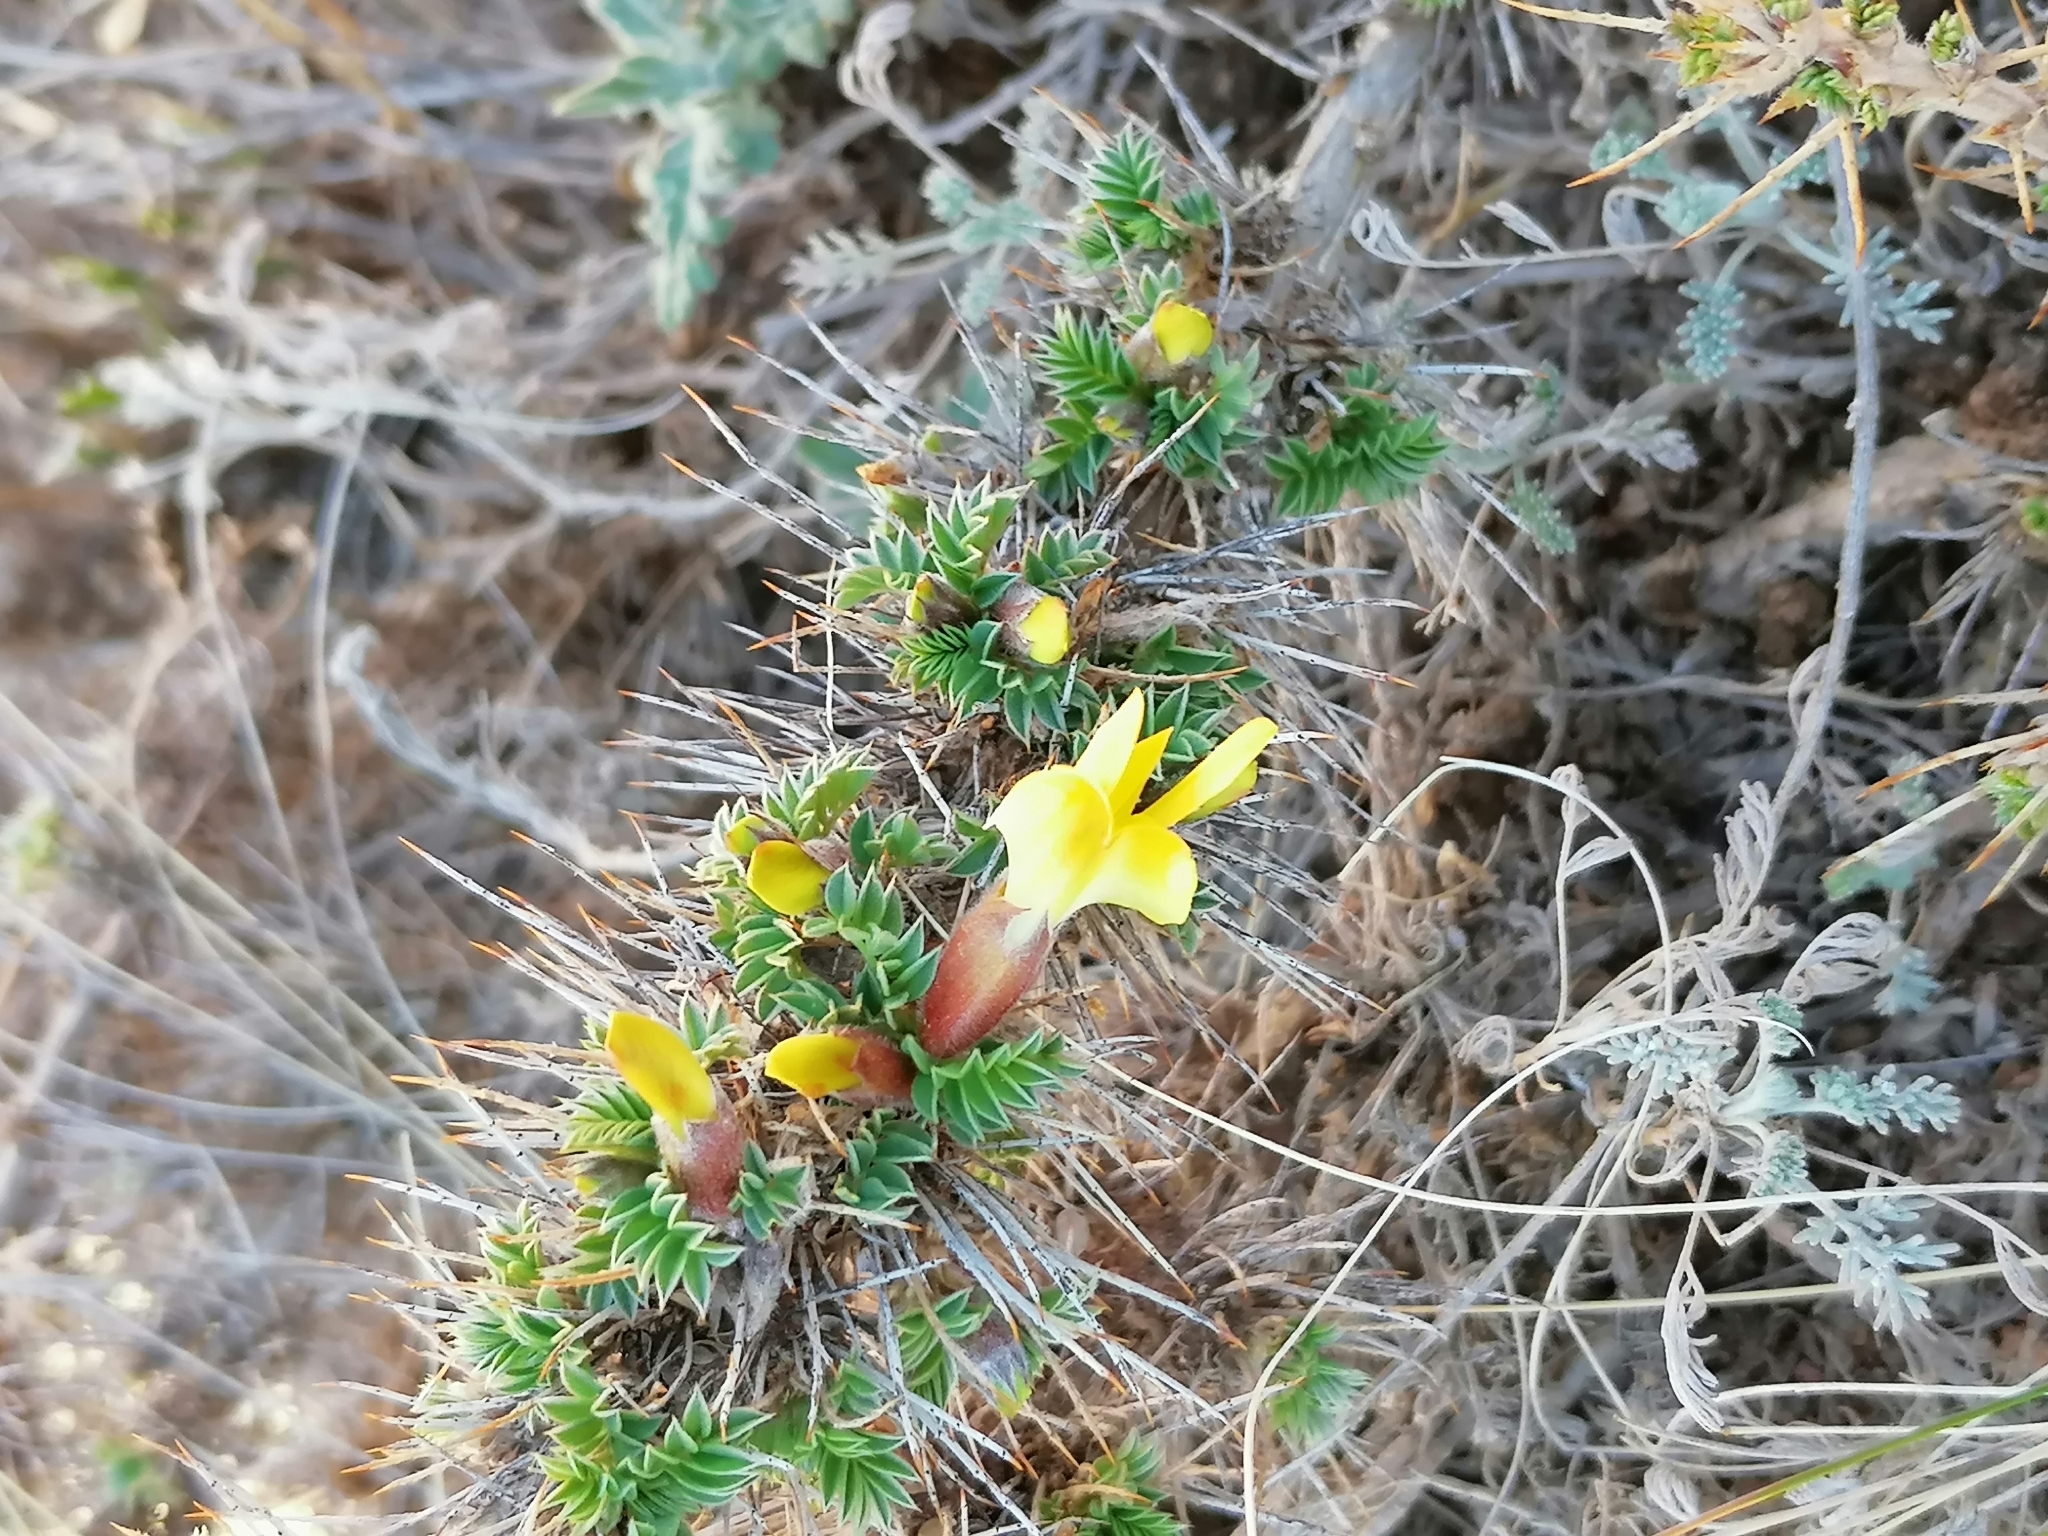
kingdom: Plantae
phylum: Tracheophyta
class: Magnoliopsida
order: Fabales
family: Fabaceae
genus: Caragana
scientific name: Caragana acanthophylla
